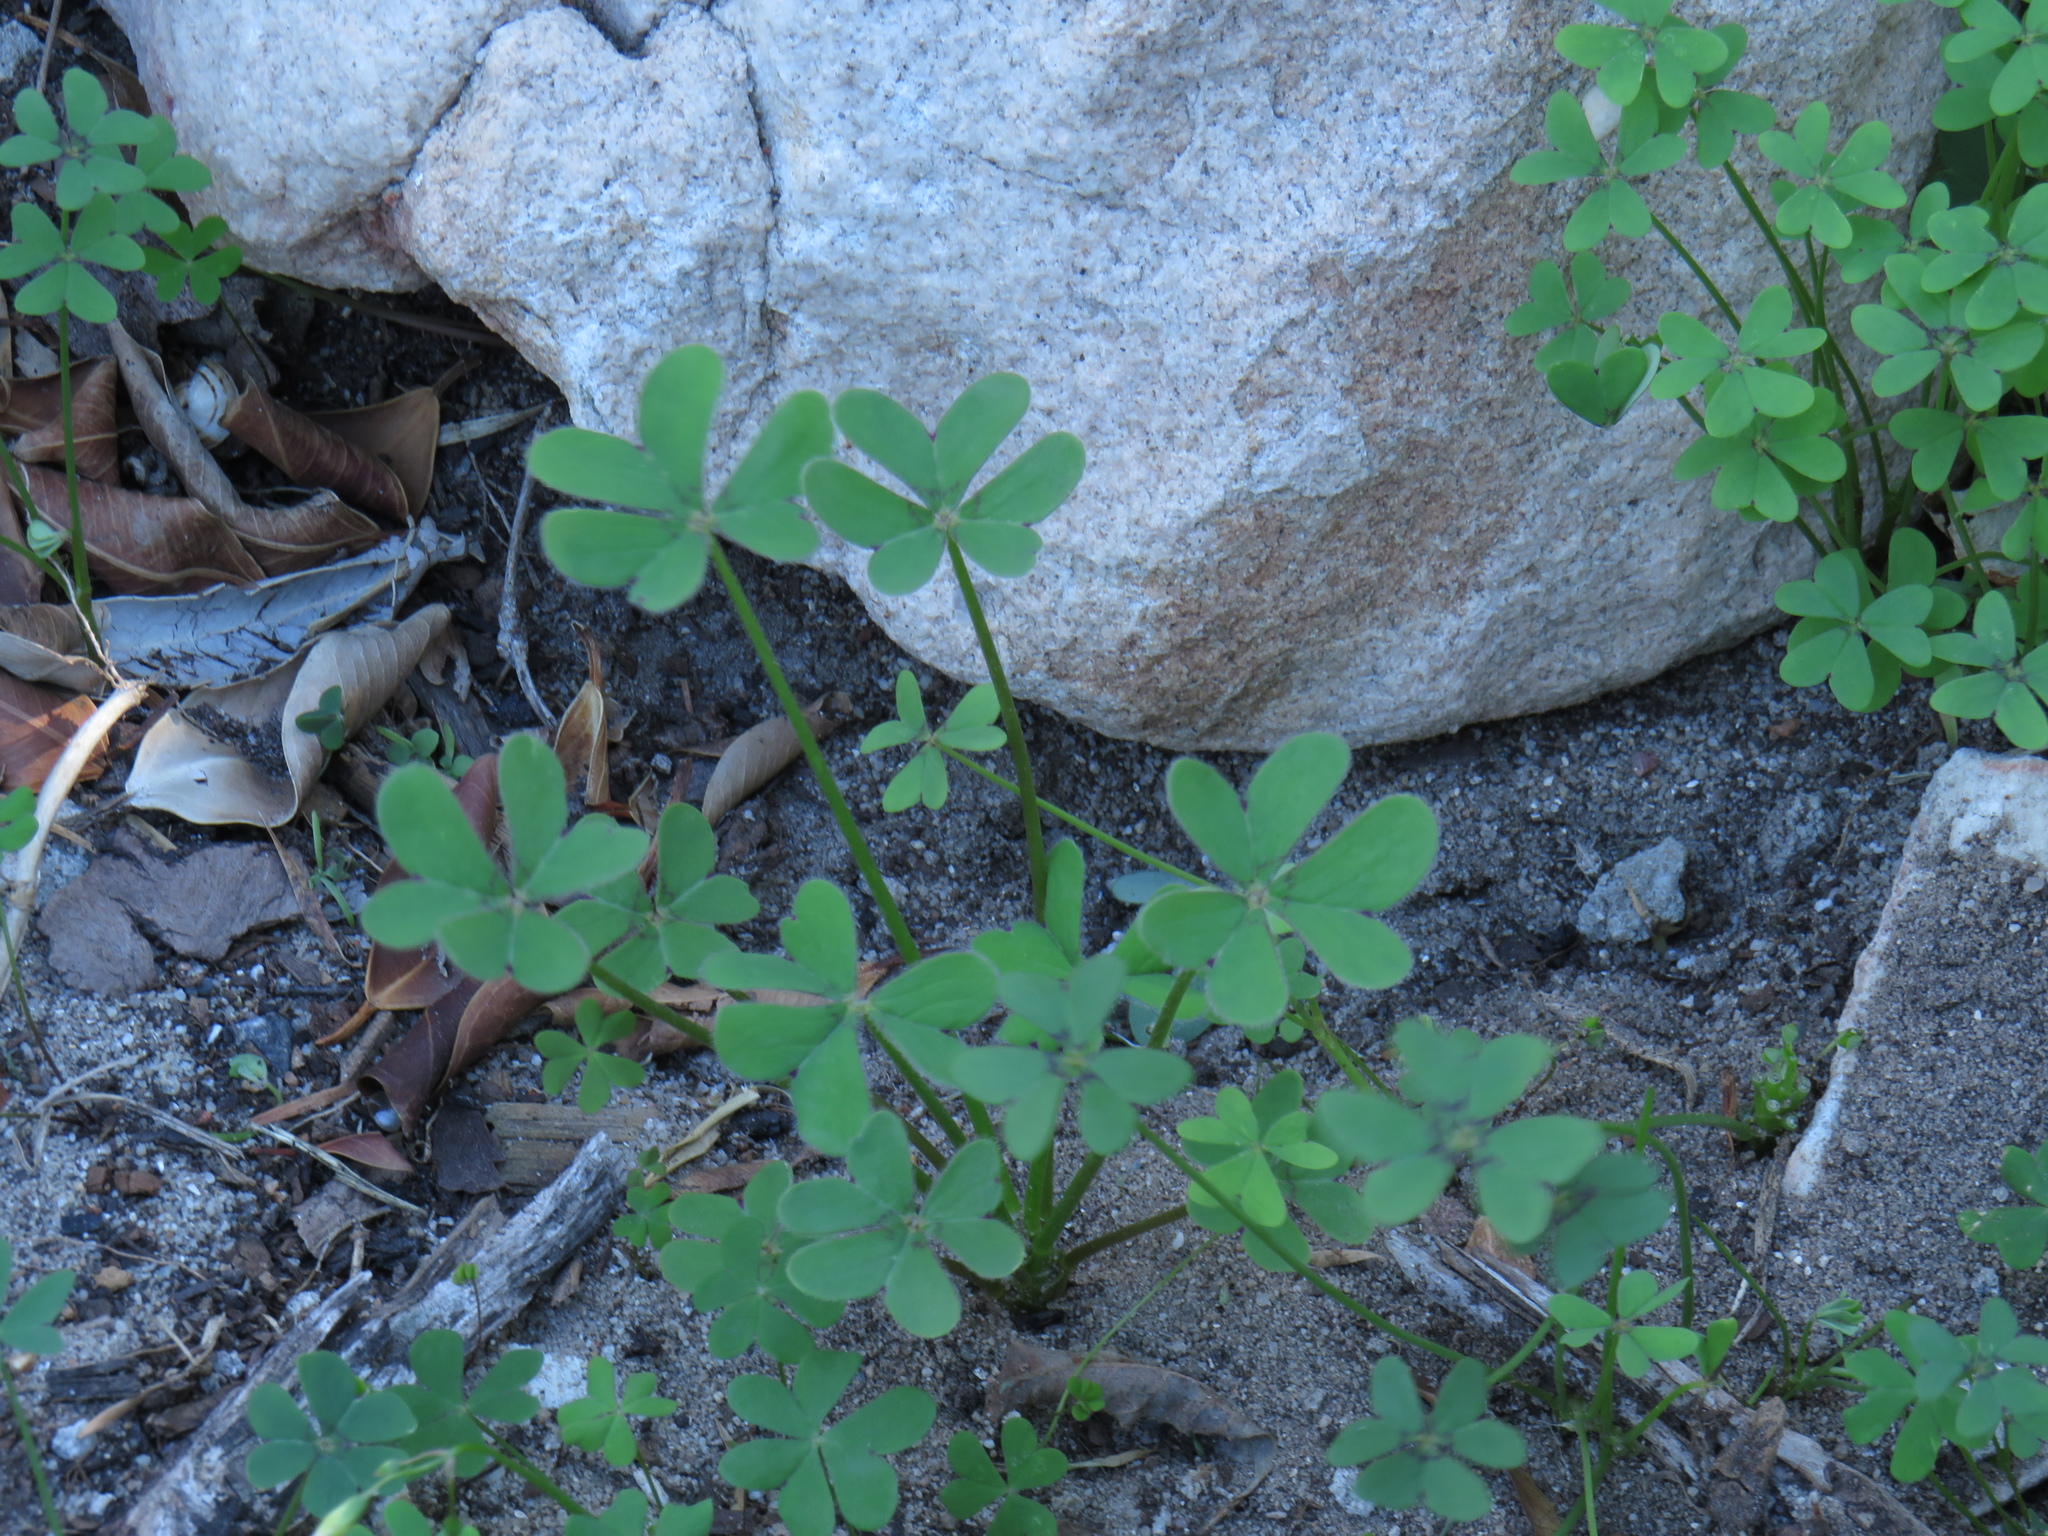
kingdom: Plantae
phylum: Tracheophyta
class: Magnoliopsida
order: Oxalidales
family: Oxalidaceae
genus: Oxalis
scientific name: Oxalis pes-caprae
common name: Bermuda-buttercup
